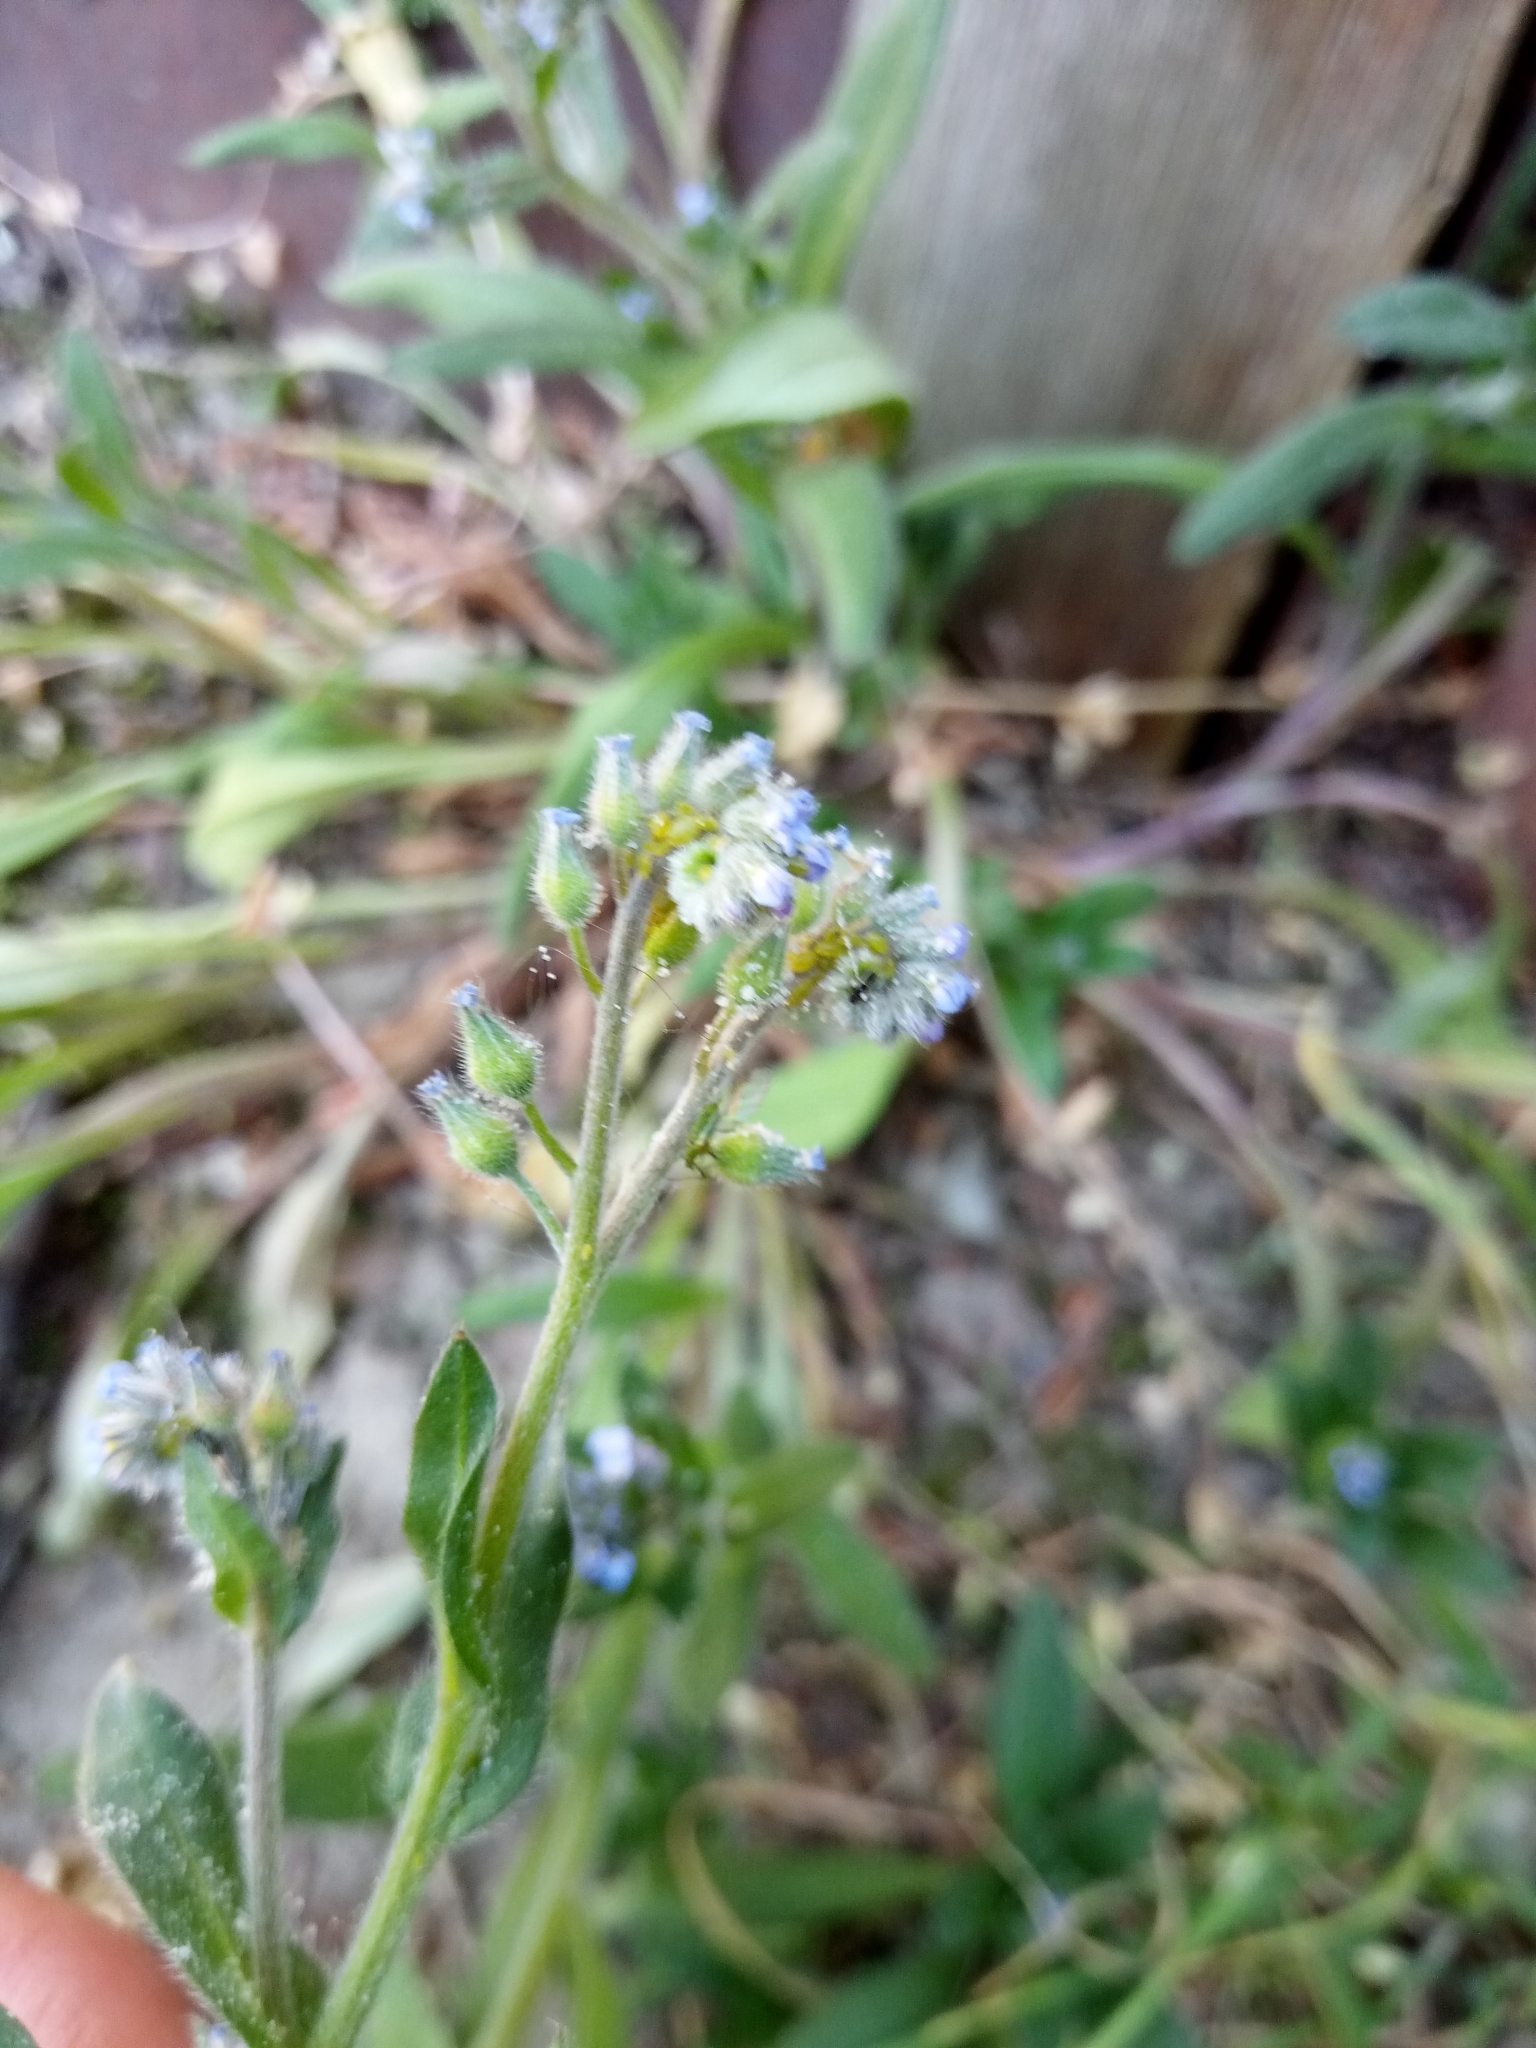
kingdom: Plantae
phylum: Tracheophyta
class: Magnoliopsida
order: Boraginales
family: Boraginaceae
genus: Myosotis
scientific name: Myosotis arvensis
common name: Field forget-me-not
